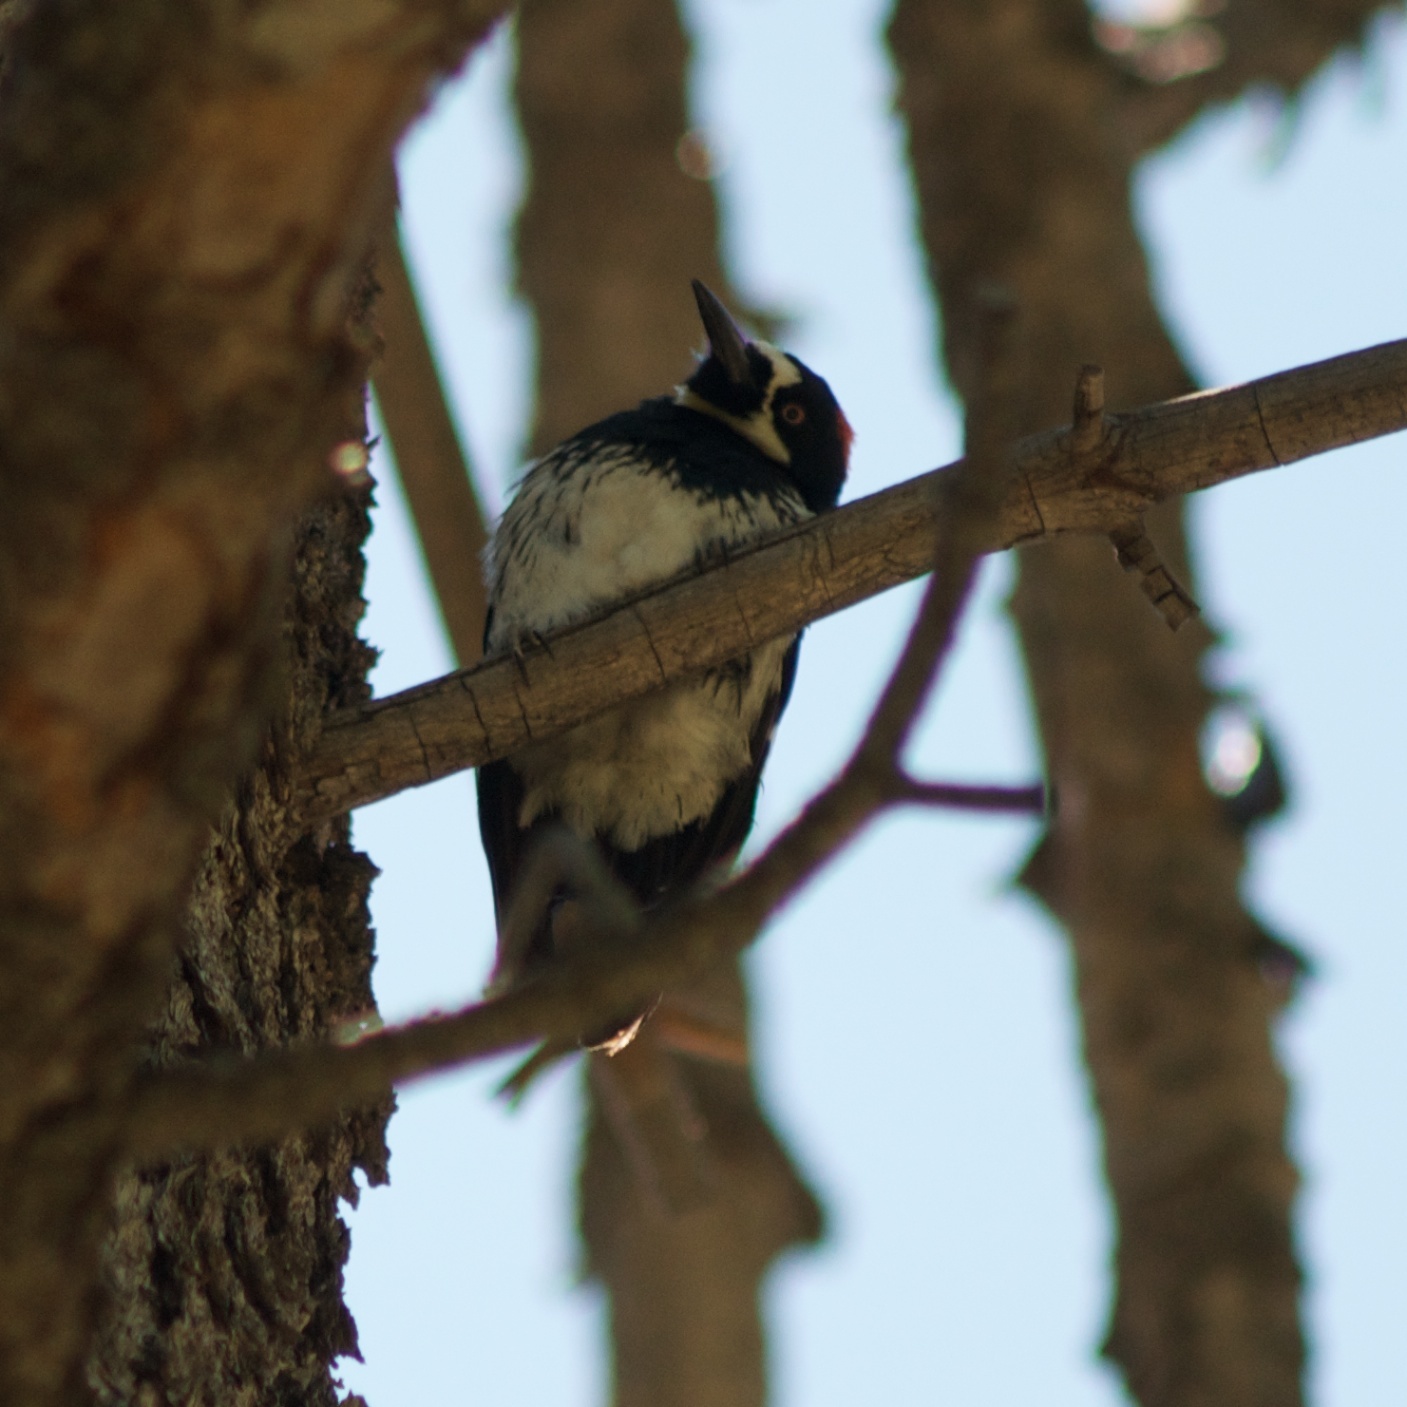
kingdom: Animalia
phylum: Chordata
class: Aves
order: Piciformes
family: Picidae
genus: Melanerpes
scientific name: Melanerpes formicivorus
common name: Acorn woodpecker
